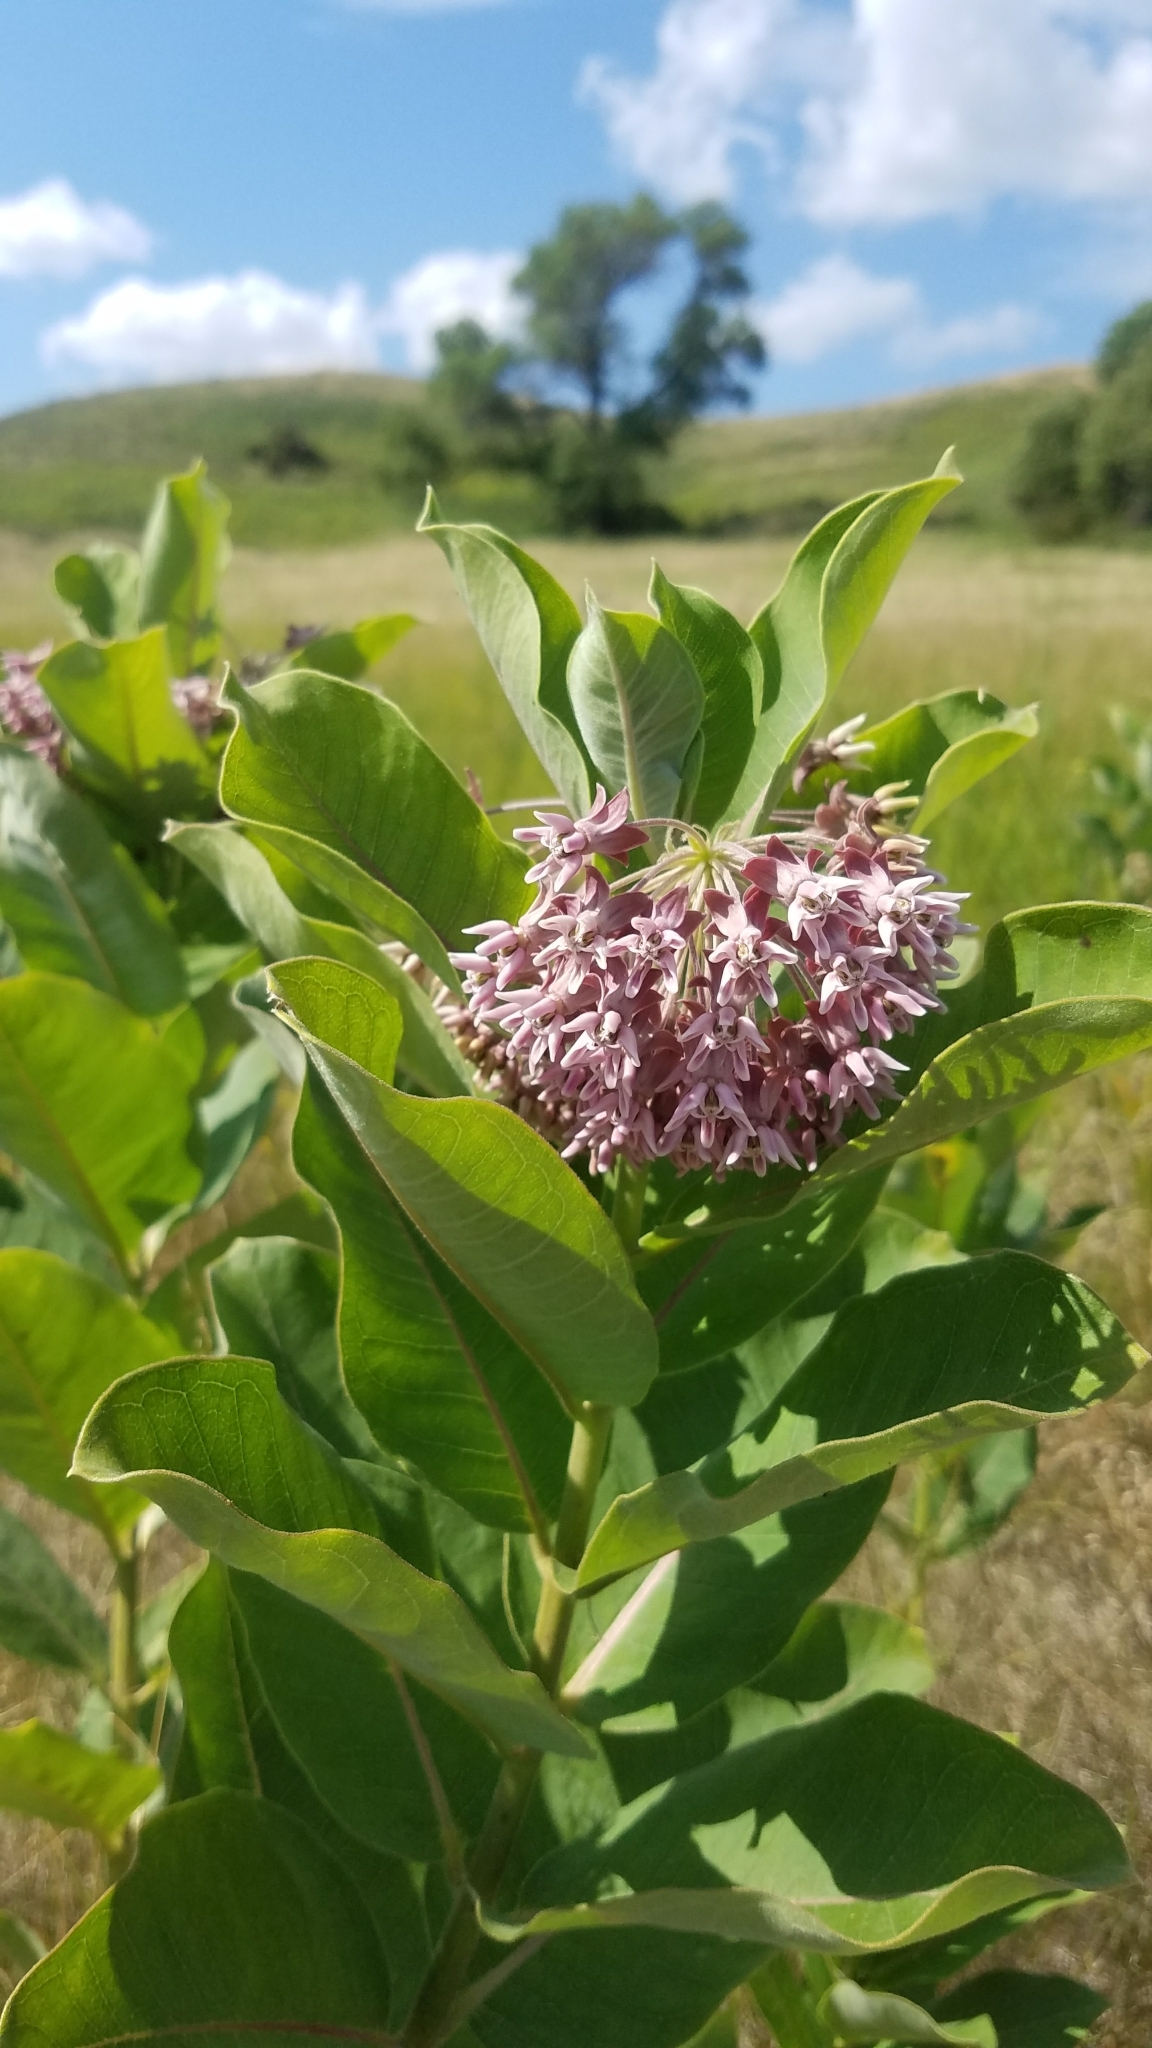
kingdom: Plantae
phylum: Tracheophyta
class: Magnoliopsida
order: Gentianales
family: Apocynaceae
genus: Asclepias
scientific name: Asclepias syriaca
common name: Common milkweed
